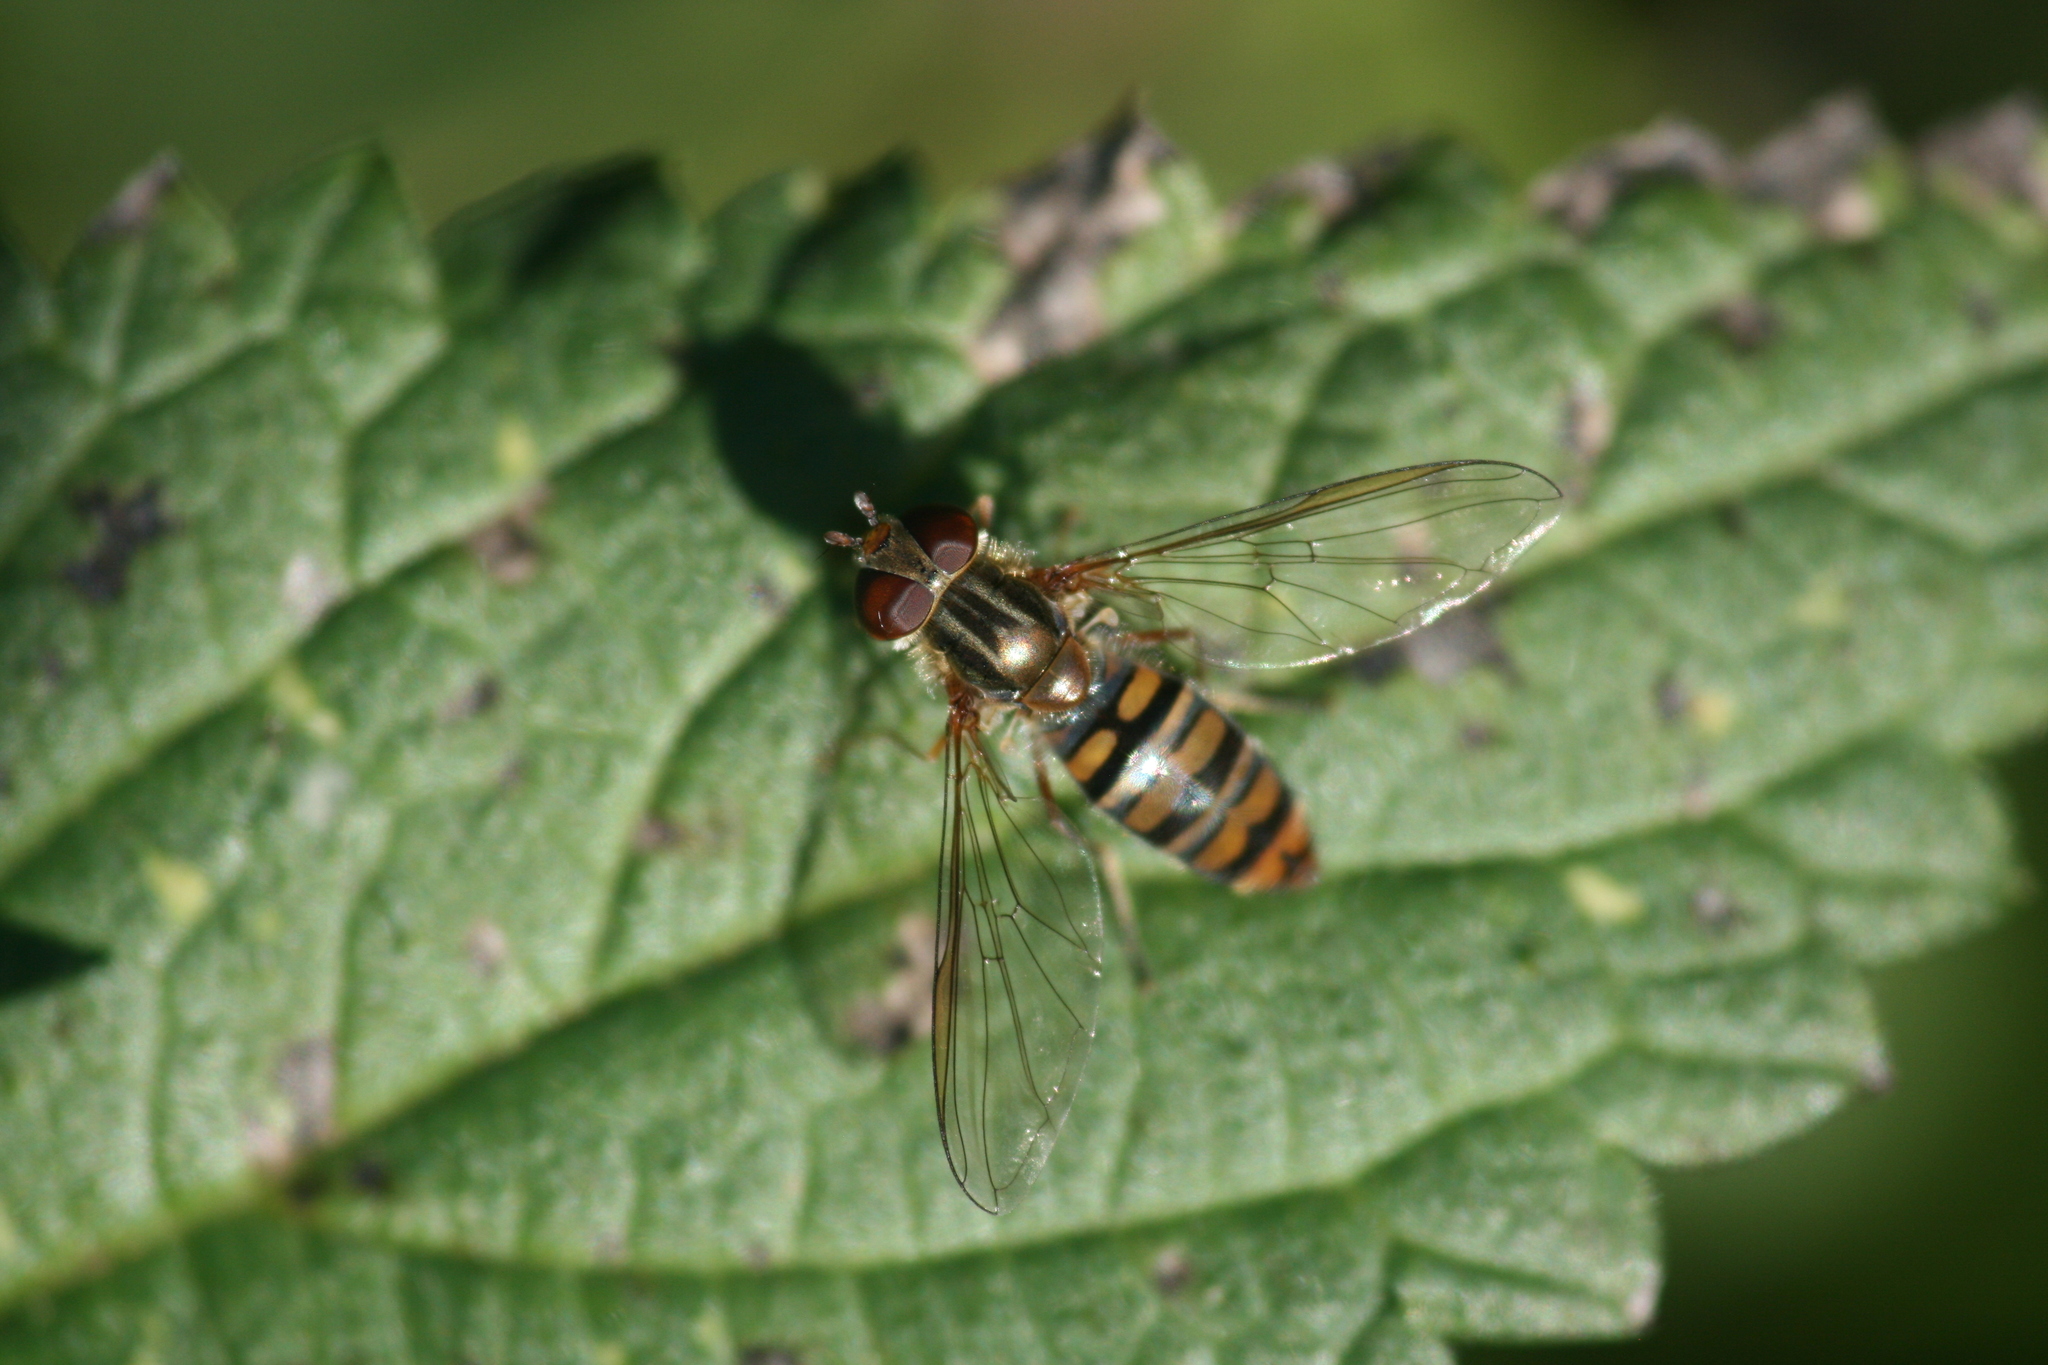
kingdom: Animalia
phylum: Arthropoda
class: Insecta
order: Diptera
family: Syrphidae
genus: Episyrphus
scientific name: Episyrphus balteatus
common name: Marmalade hoverfly
